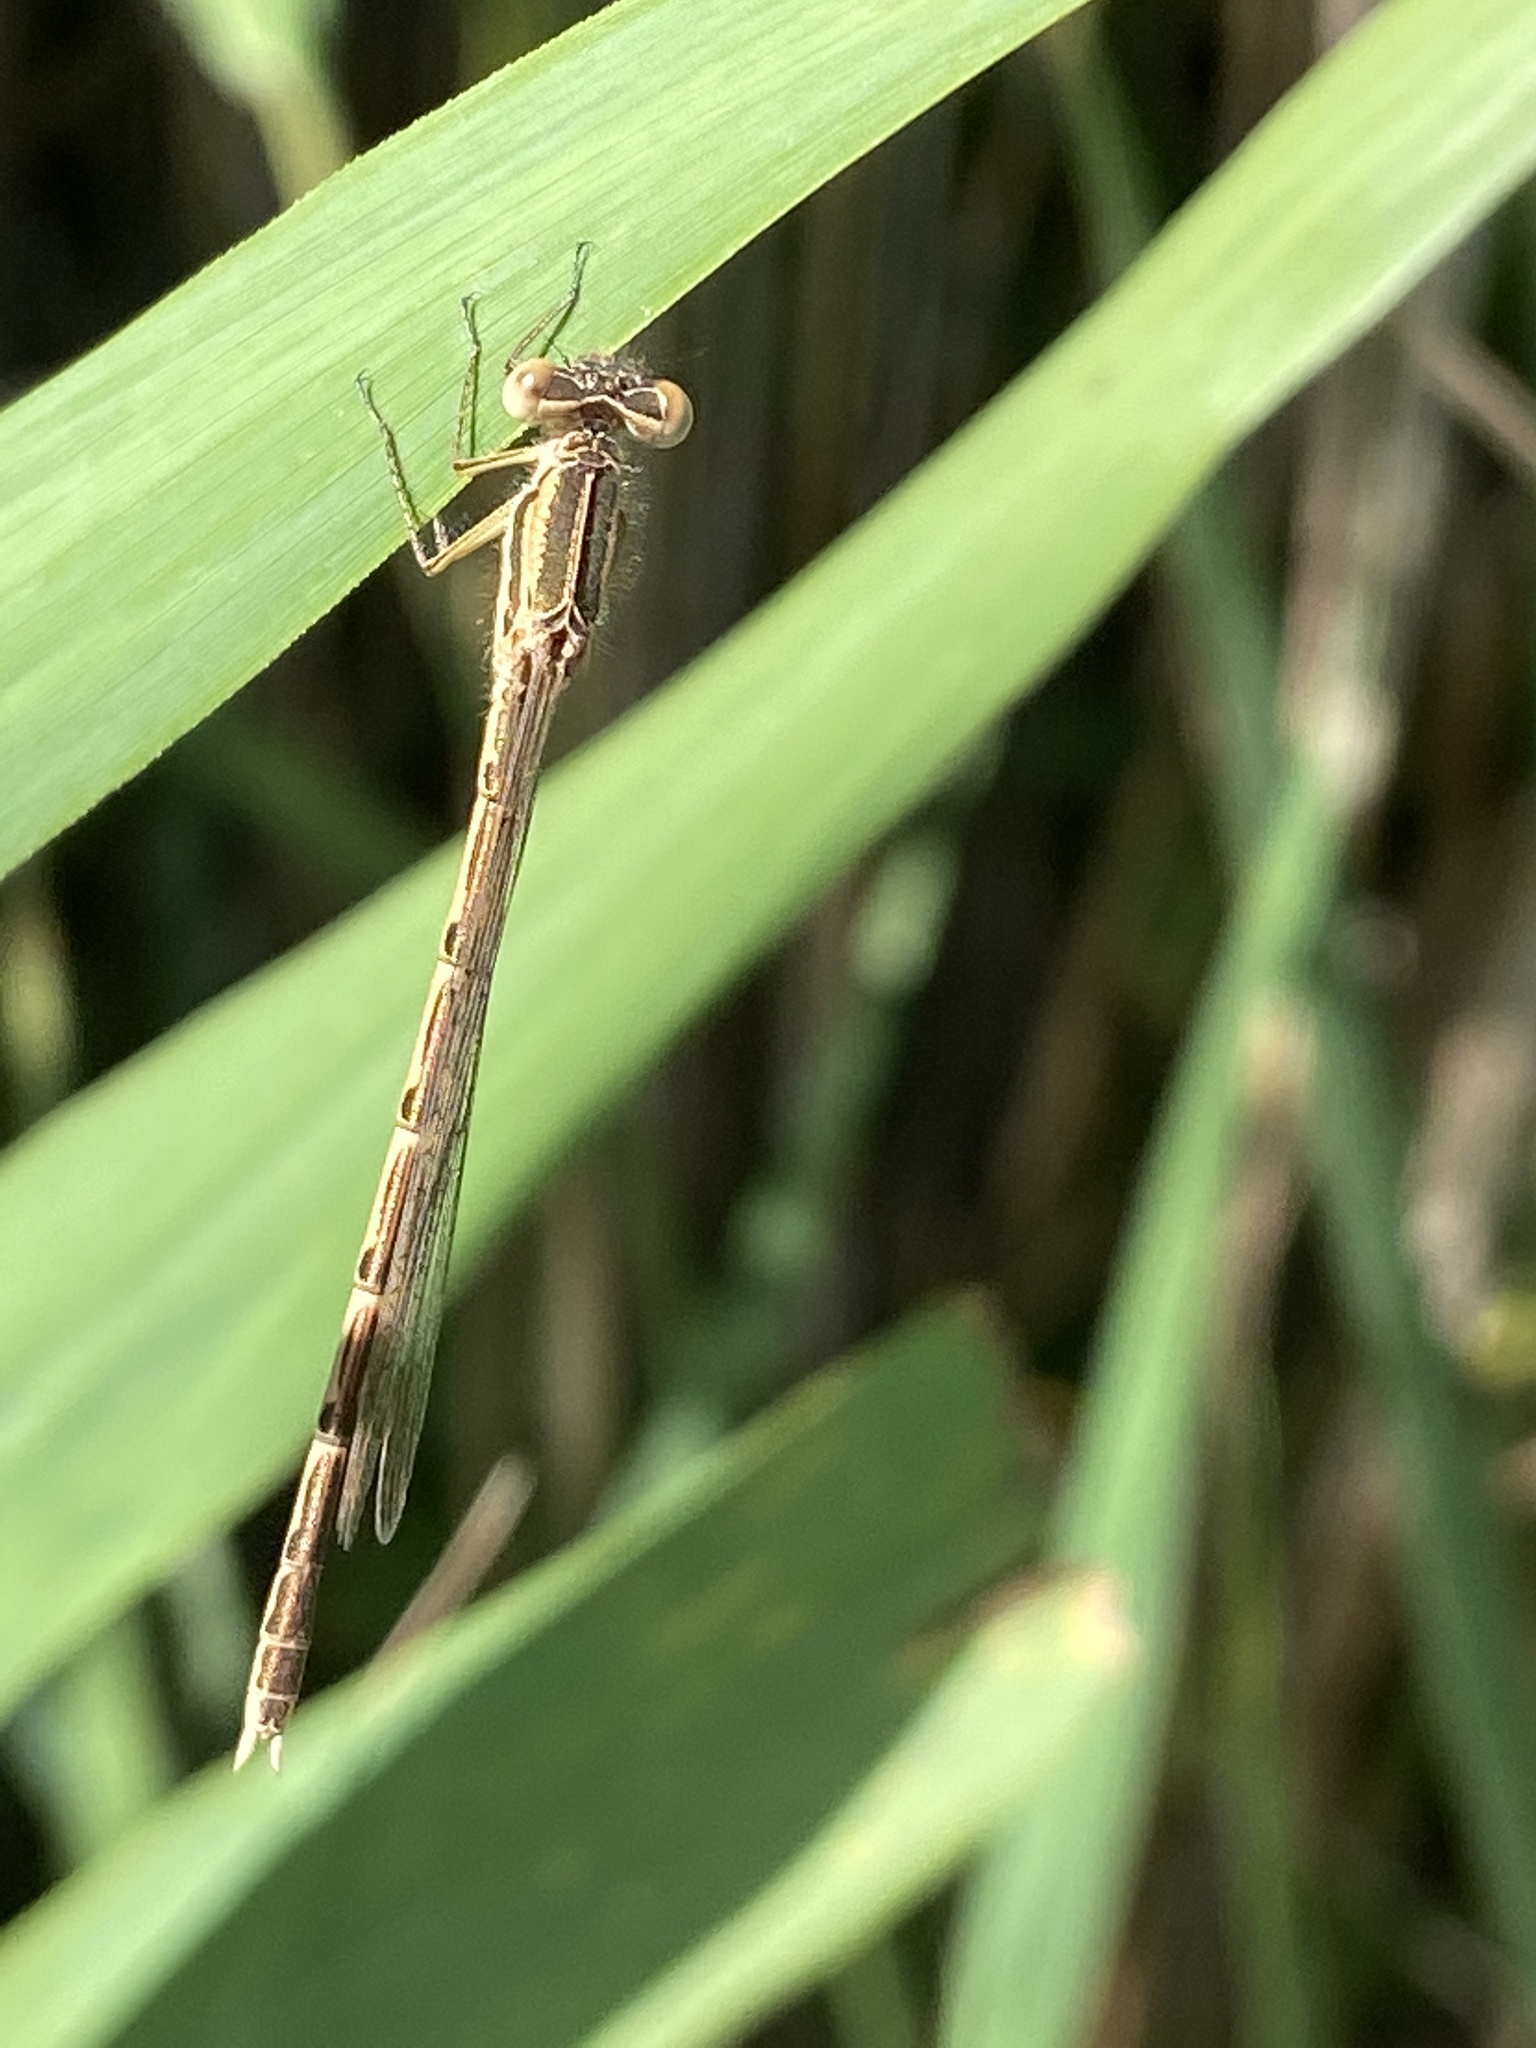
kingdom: Animalia
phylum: Arthropoda
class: Insecta
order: Odonata
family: Lestidae
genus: Sympecma
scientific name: Sympecma fusca
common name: Common winter damsel
